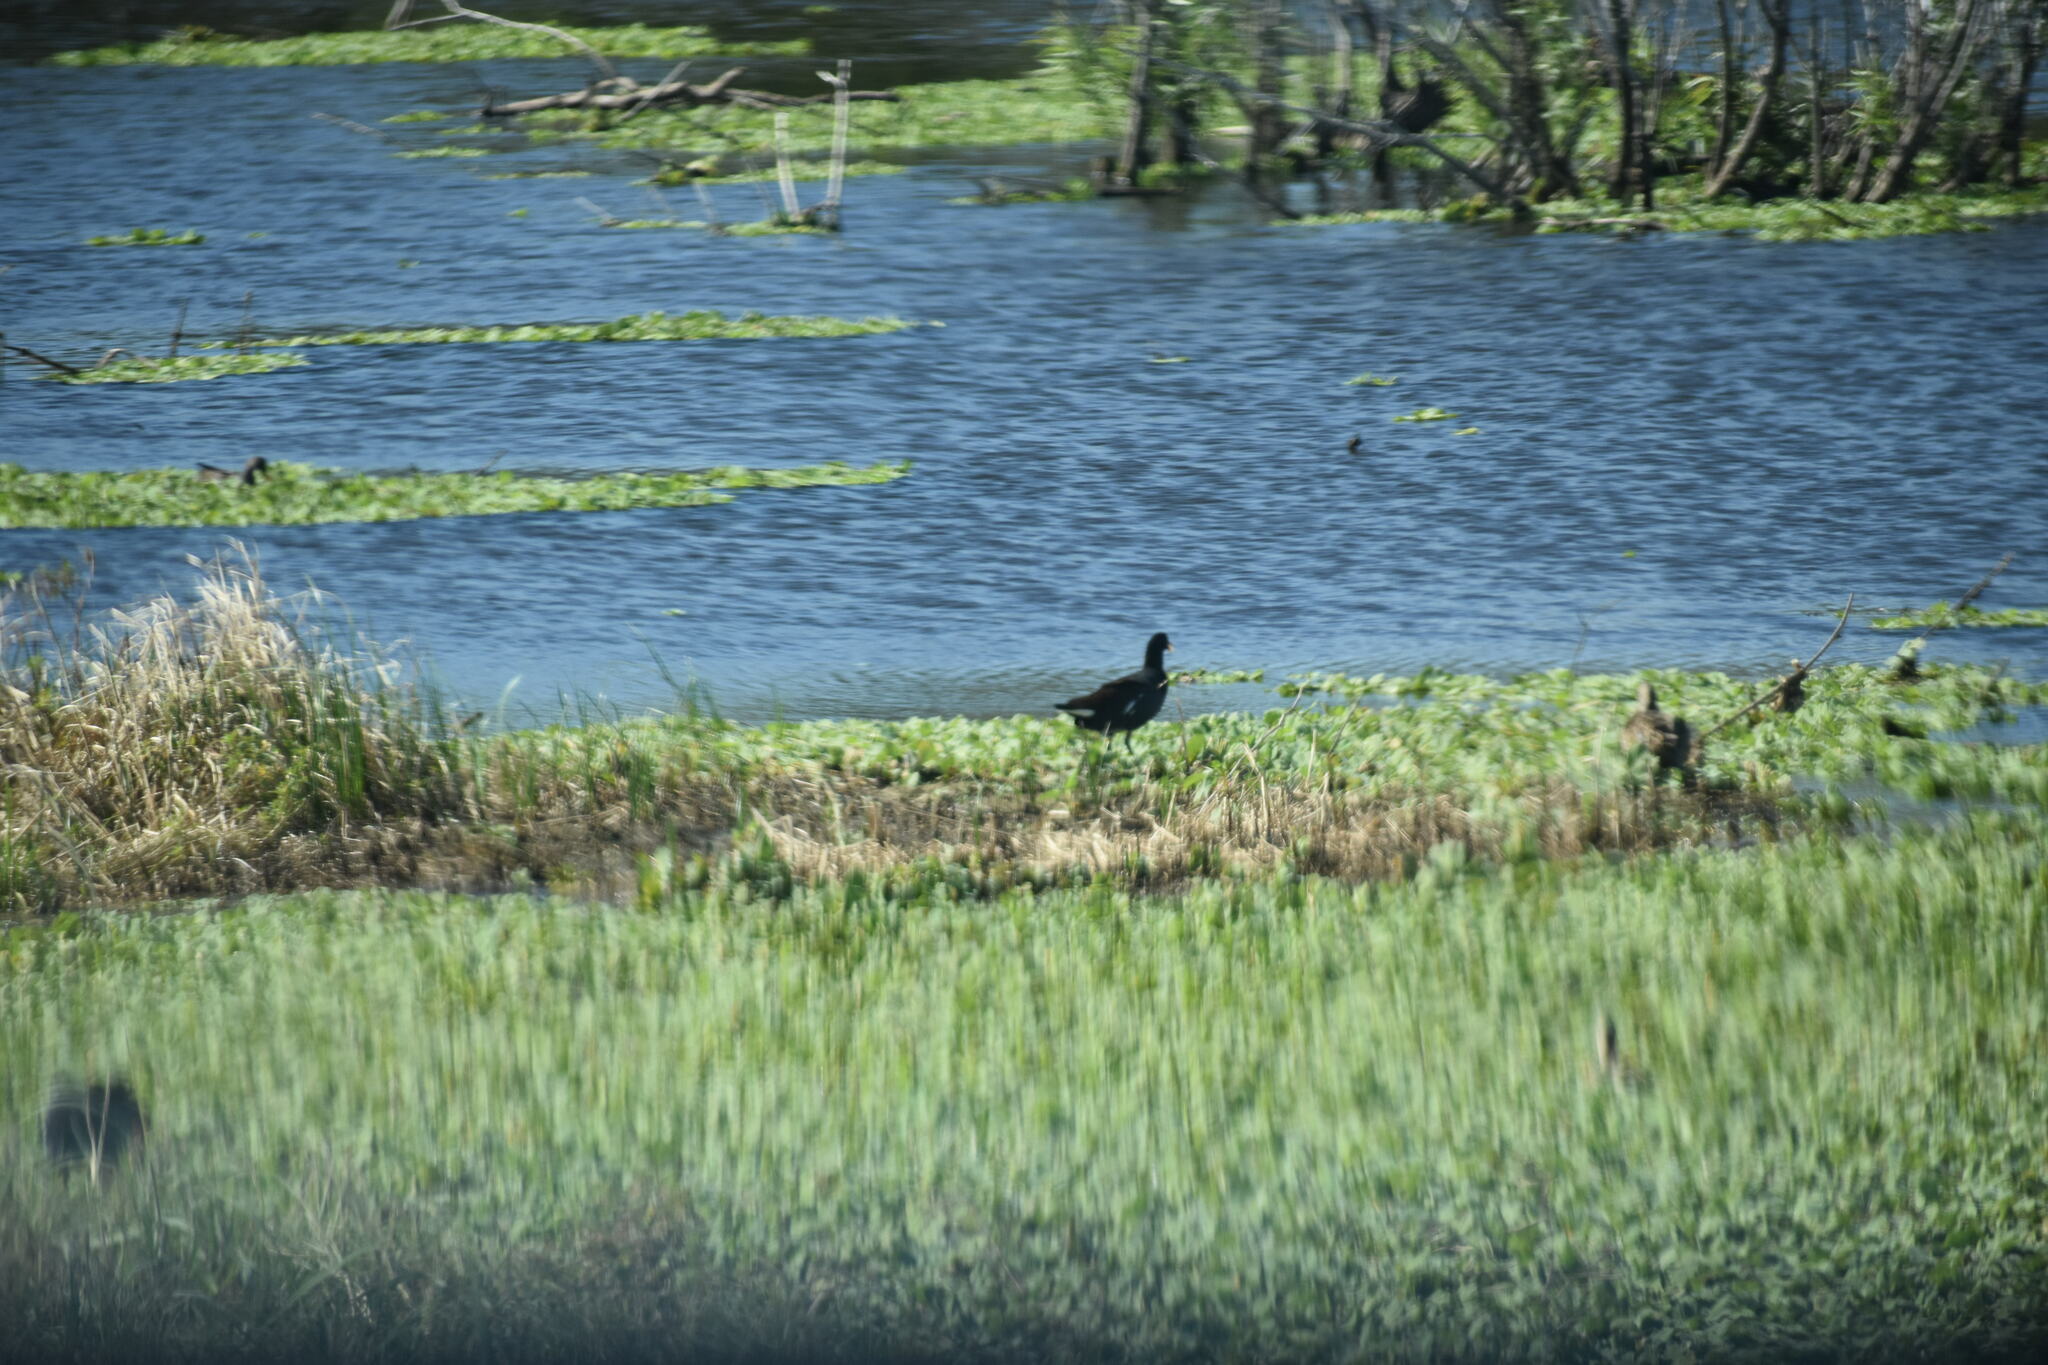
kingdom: Animalia
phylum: Chordata
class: Aves
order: Gruiformes
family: Rallidae
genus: Gallinula
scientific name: Gallinula chloropus
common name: Common moorhen
